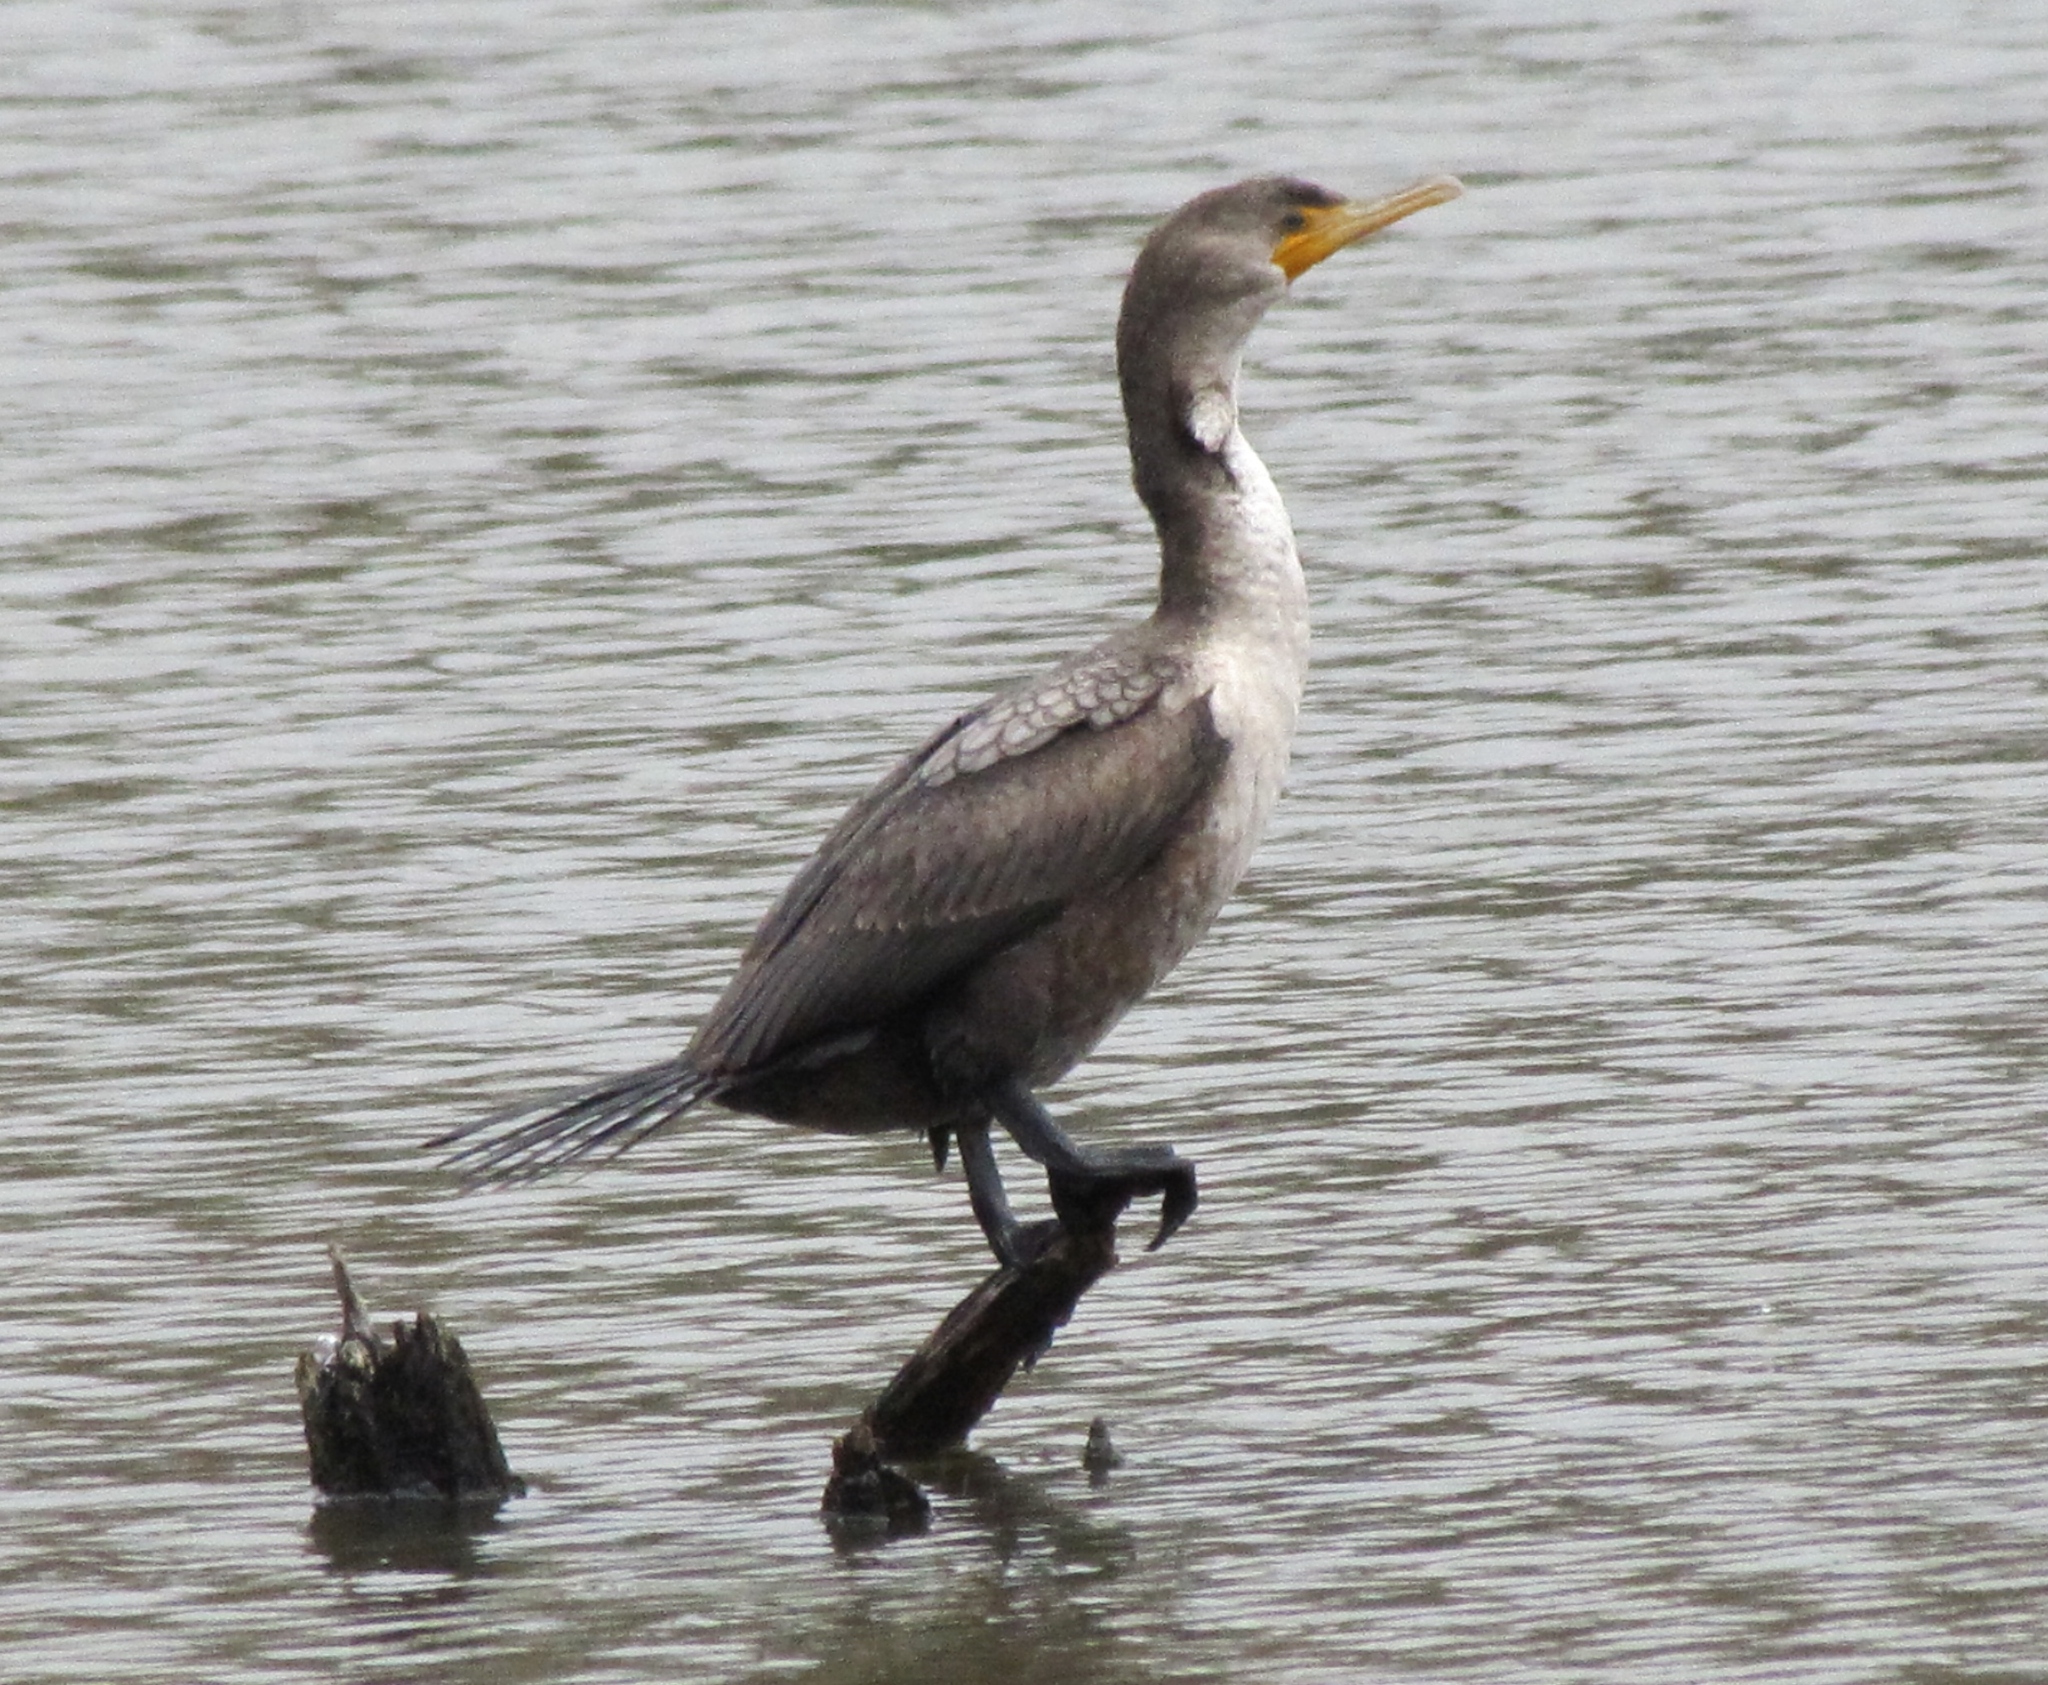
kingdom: Animalia
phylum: Chordata
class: Aves
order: Suliformes
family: Phalacrocoracidae
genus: Phalacrocorax
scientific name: Phalacrocorax auritus
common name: Double-crested cormorant
